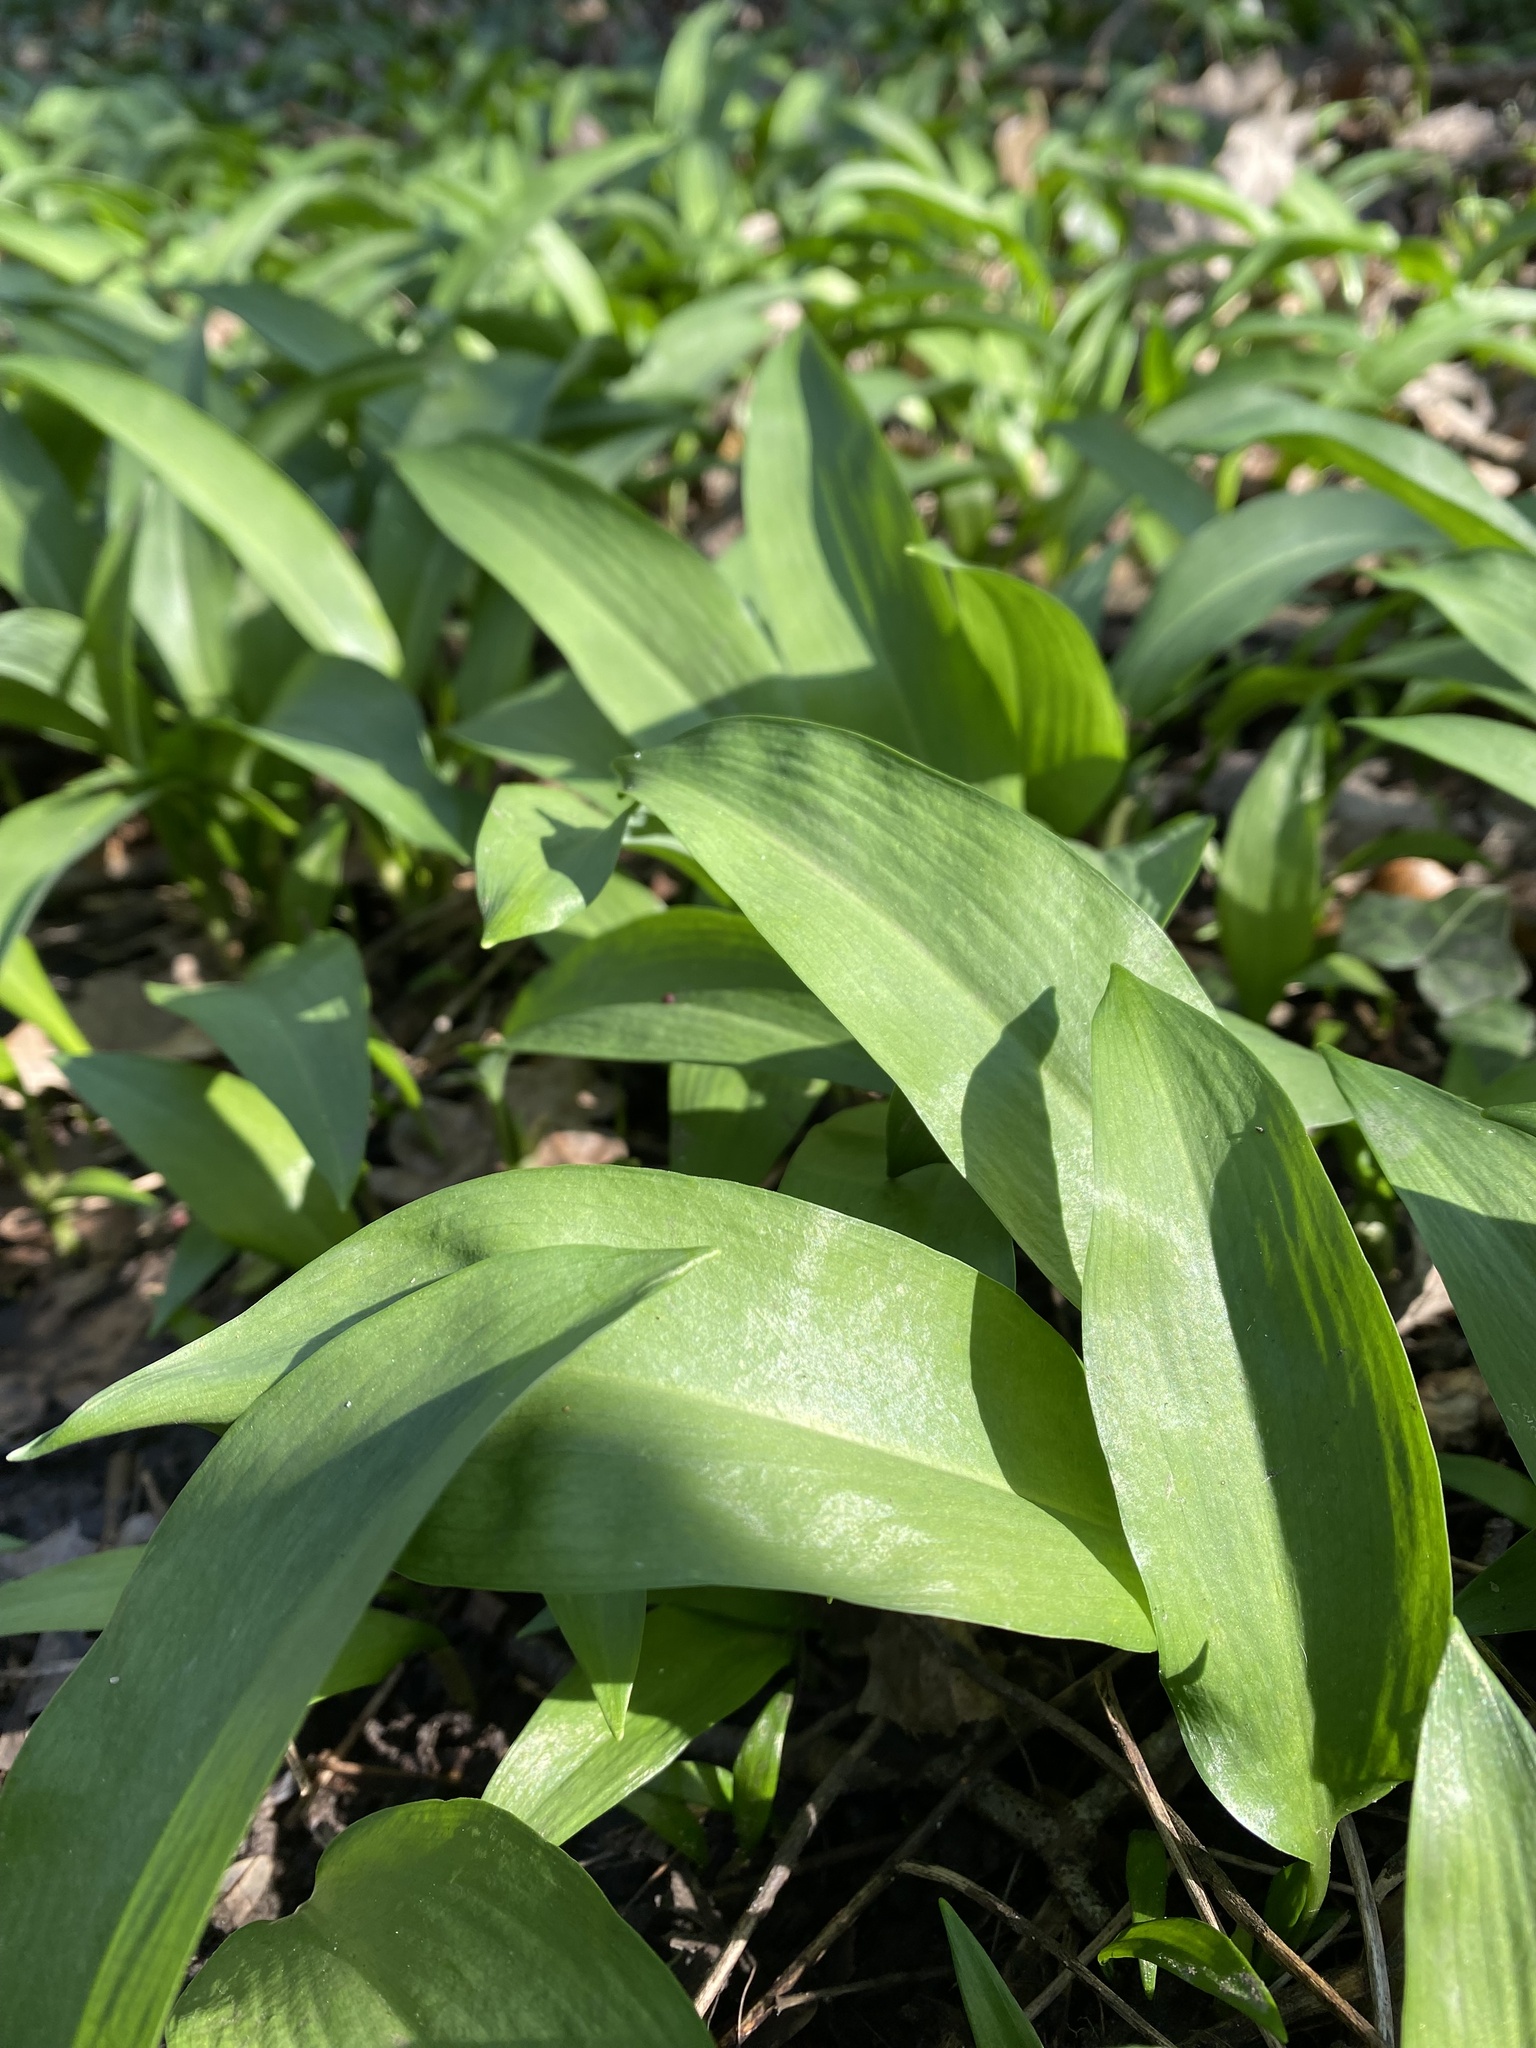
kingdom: Plantae
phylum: Tracheophyta
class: Liliopsida
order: Asparagales
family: Amaryllidaceae
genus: Allium
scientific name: Allium ursinum
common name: Ramsons
